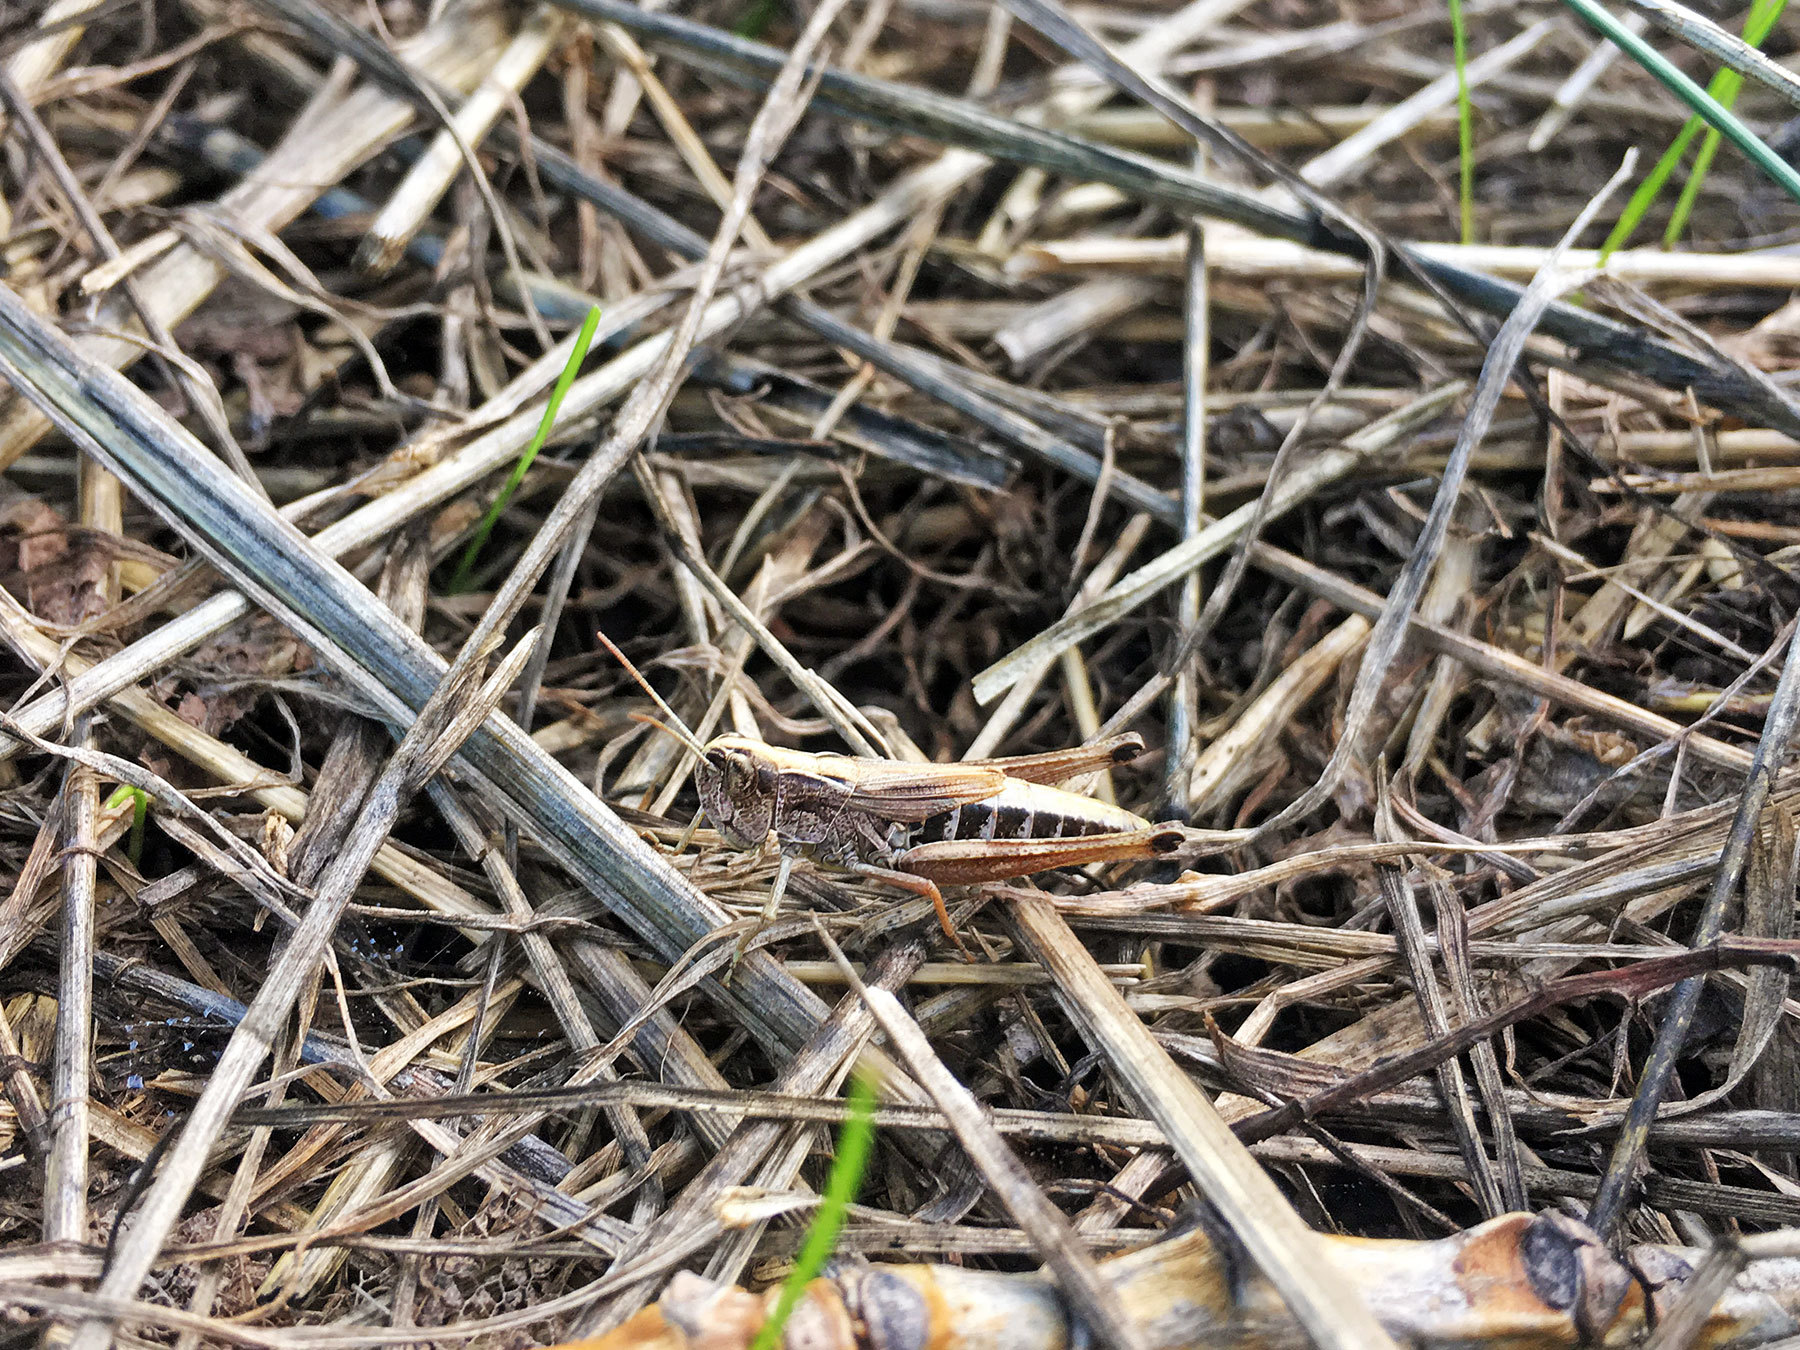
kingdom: Animalia
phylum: Arthropoda
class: Insecta
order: Orthoptera
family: Acrididae
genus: Pseudochorthippus
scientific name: Pseudochorthippus parallelus
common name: Meadow grasshopper
